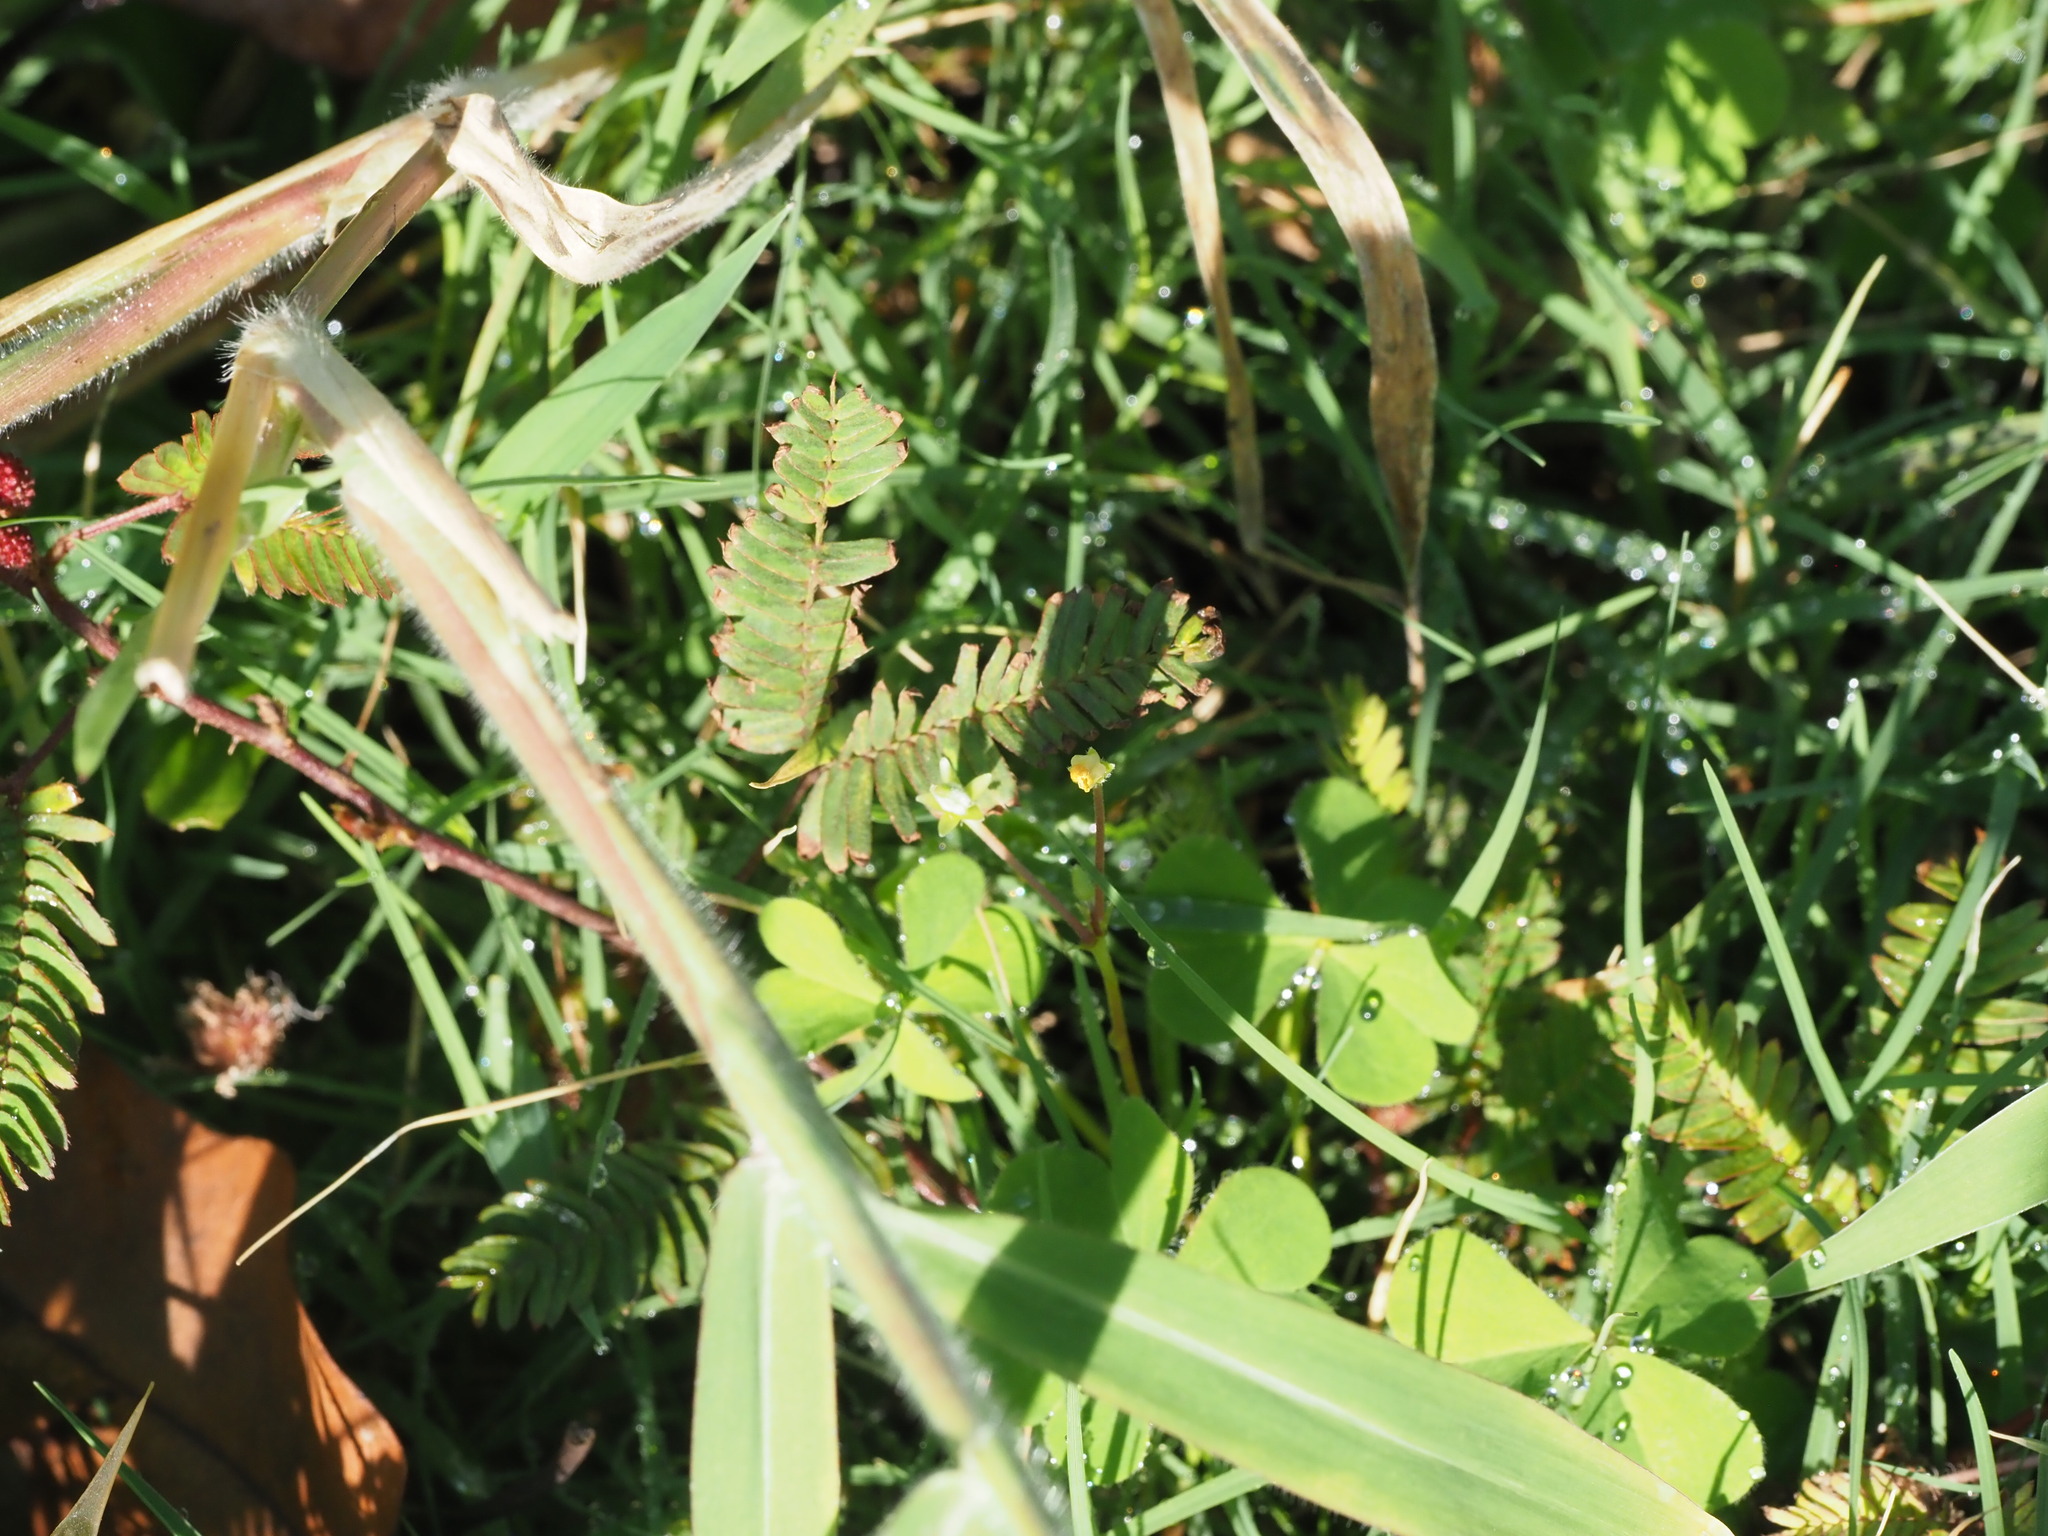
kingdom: Plantae
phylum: Tracheophyta
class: Magnoliopsida
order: Fabales
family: Fabaceae
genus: Mimosa
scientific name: Mimosa pudica
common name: Sensitive plant
